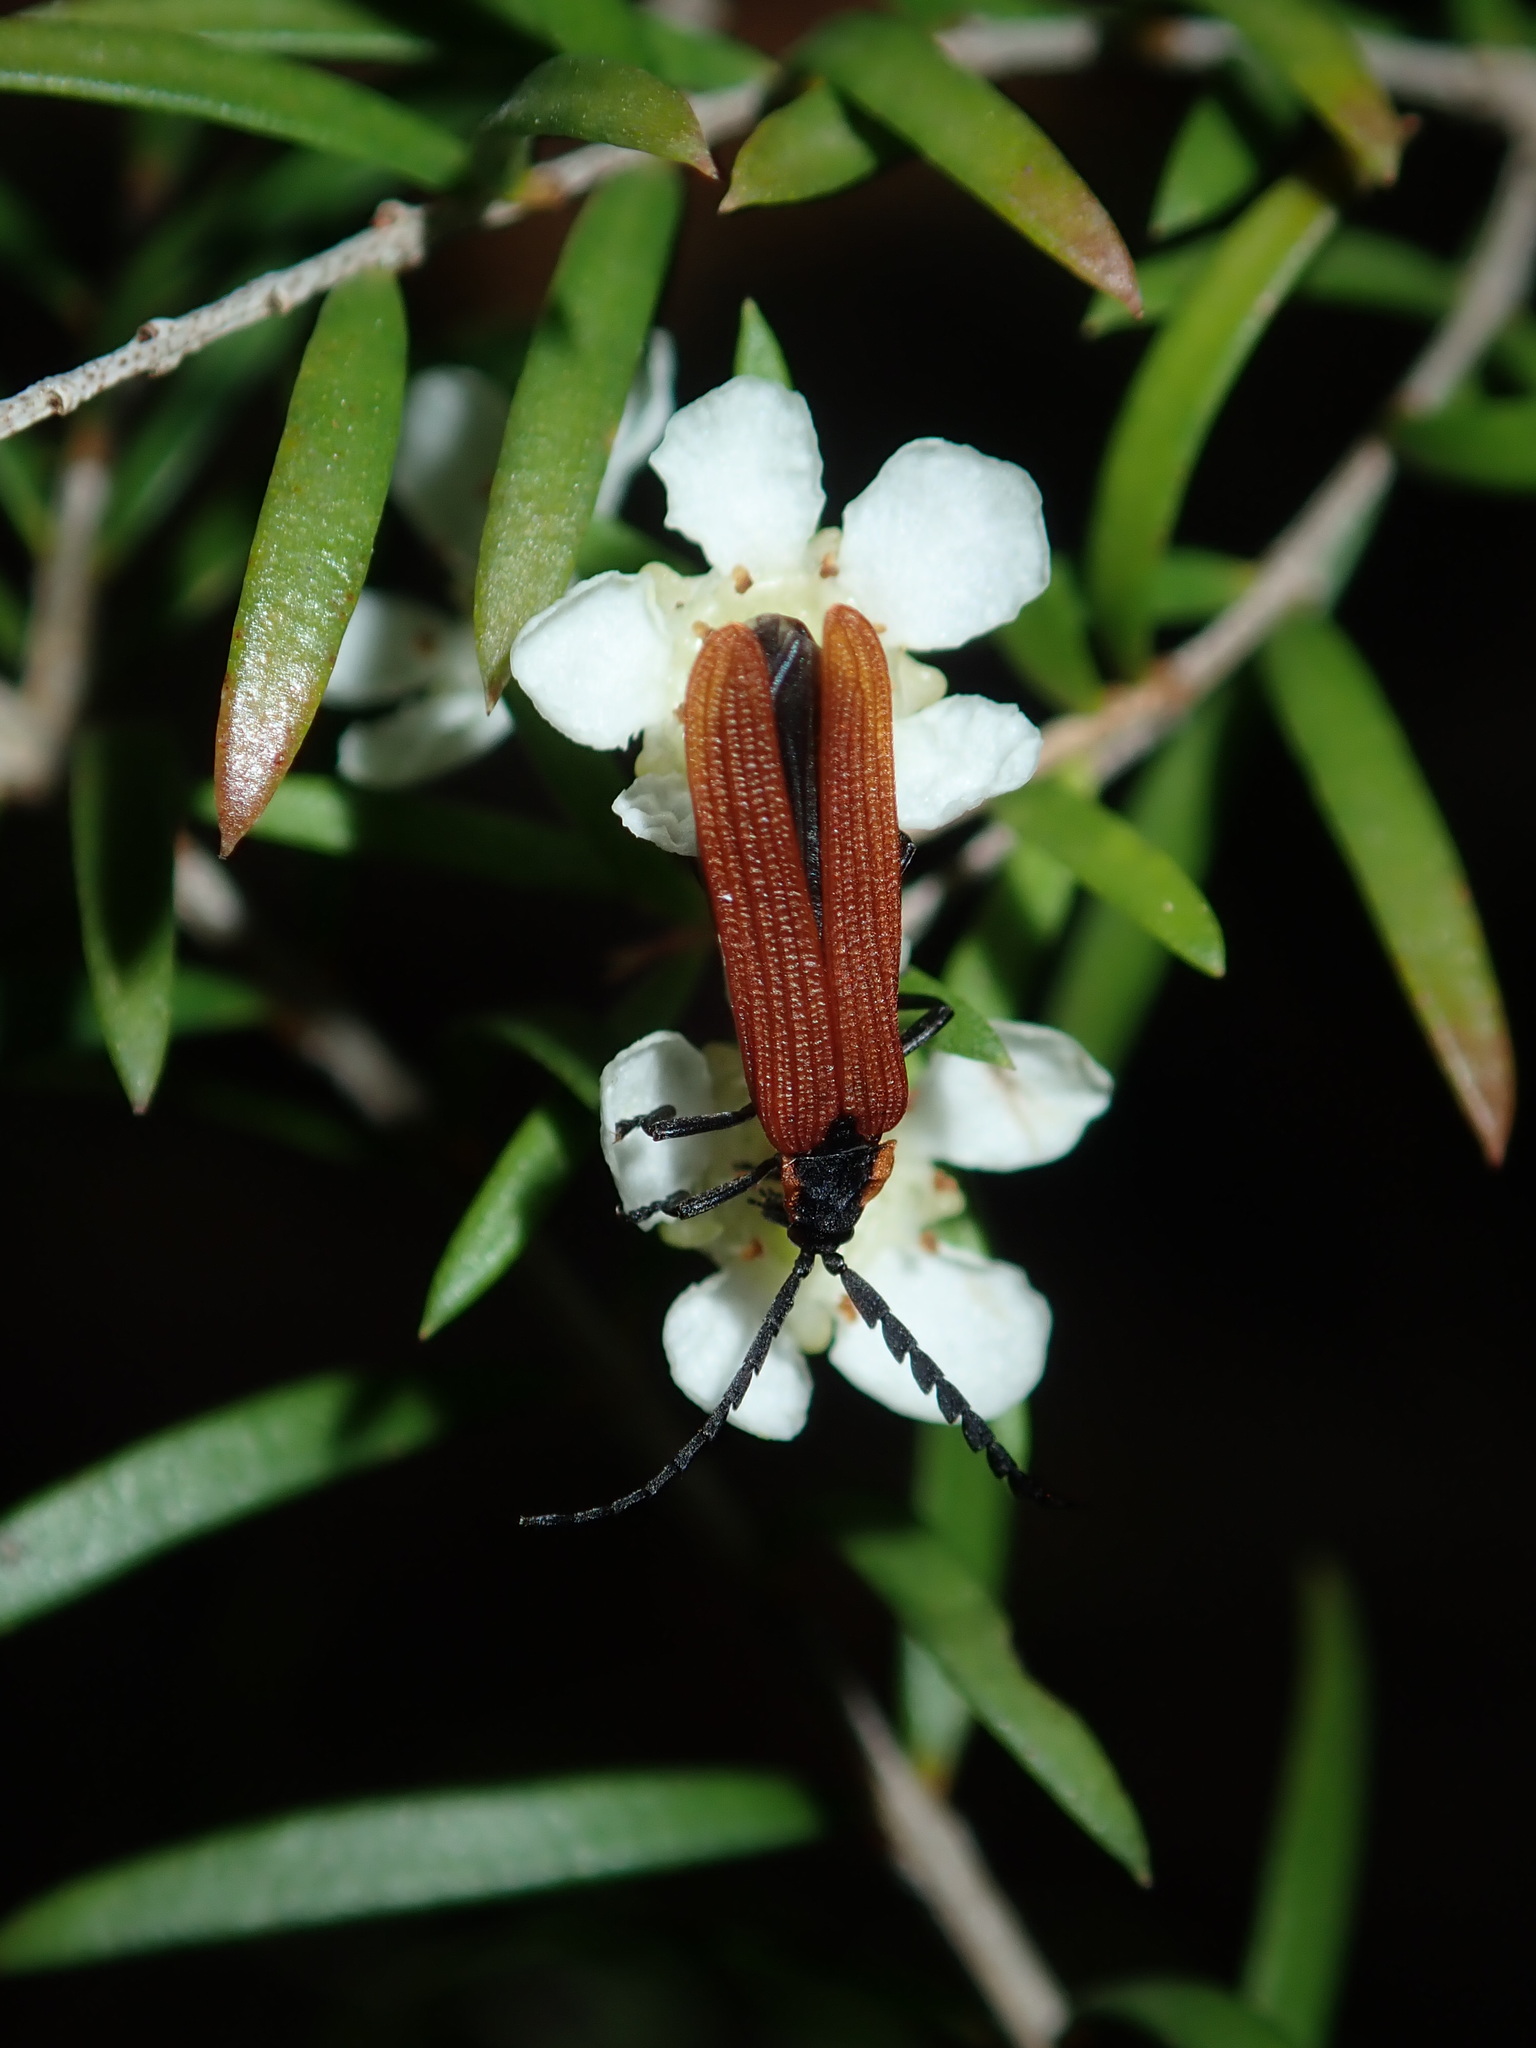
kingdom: Animalia
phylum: Arthropoda
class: Insecta
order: Coleoptera
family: Lycidae
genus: Porrostoma
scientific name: Porrostoma
